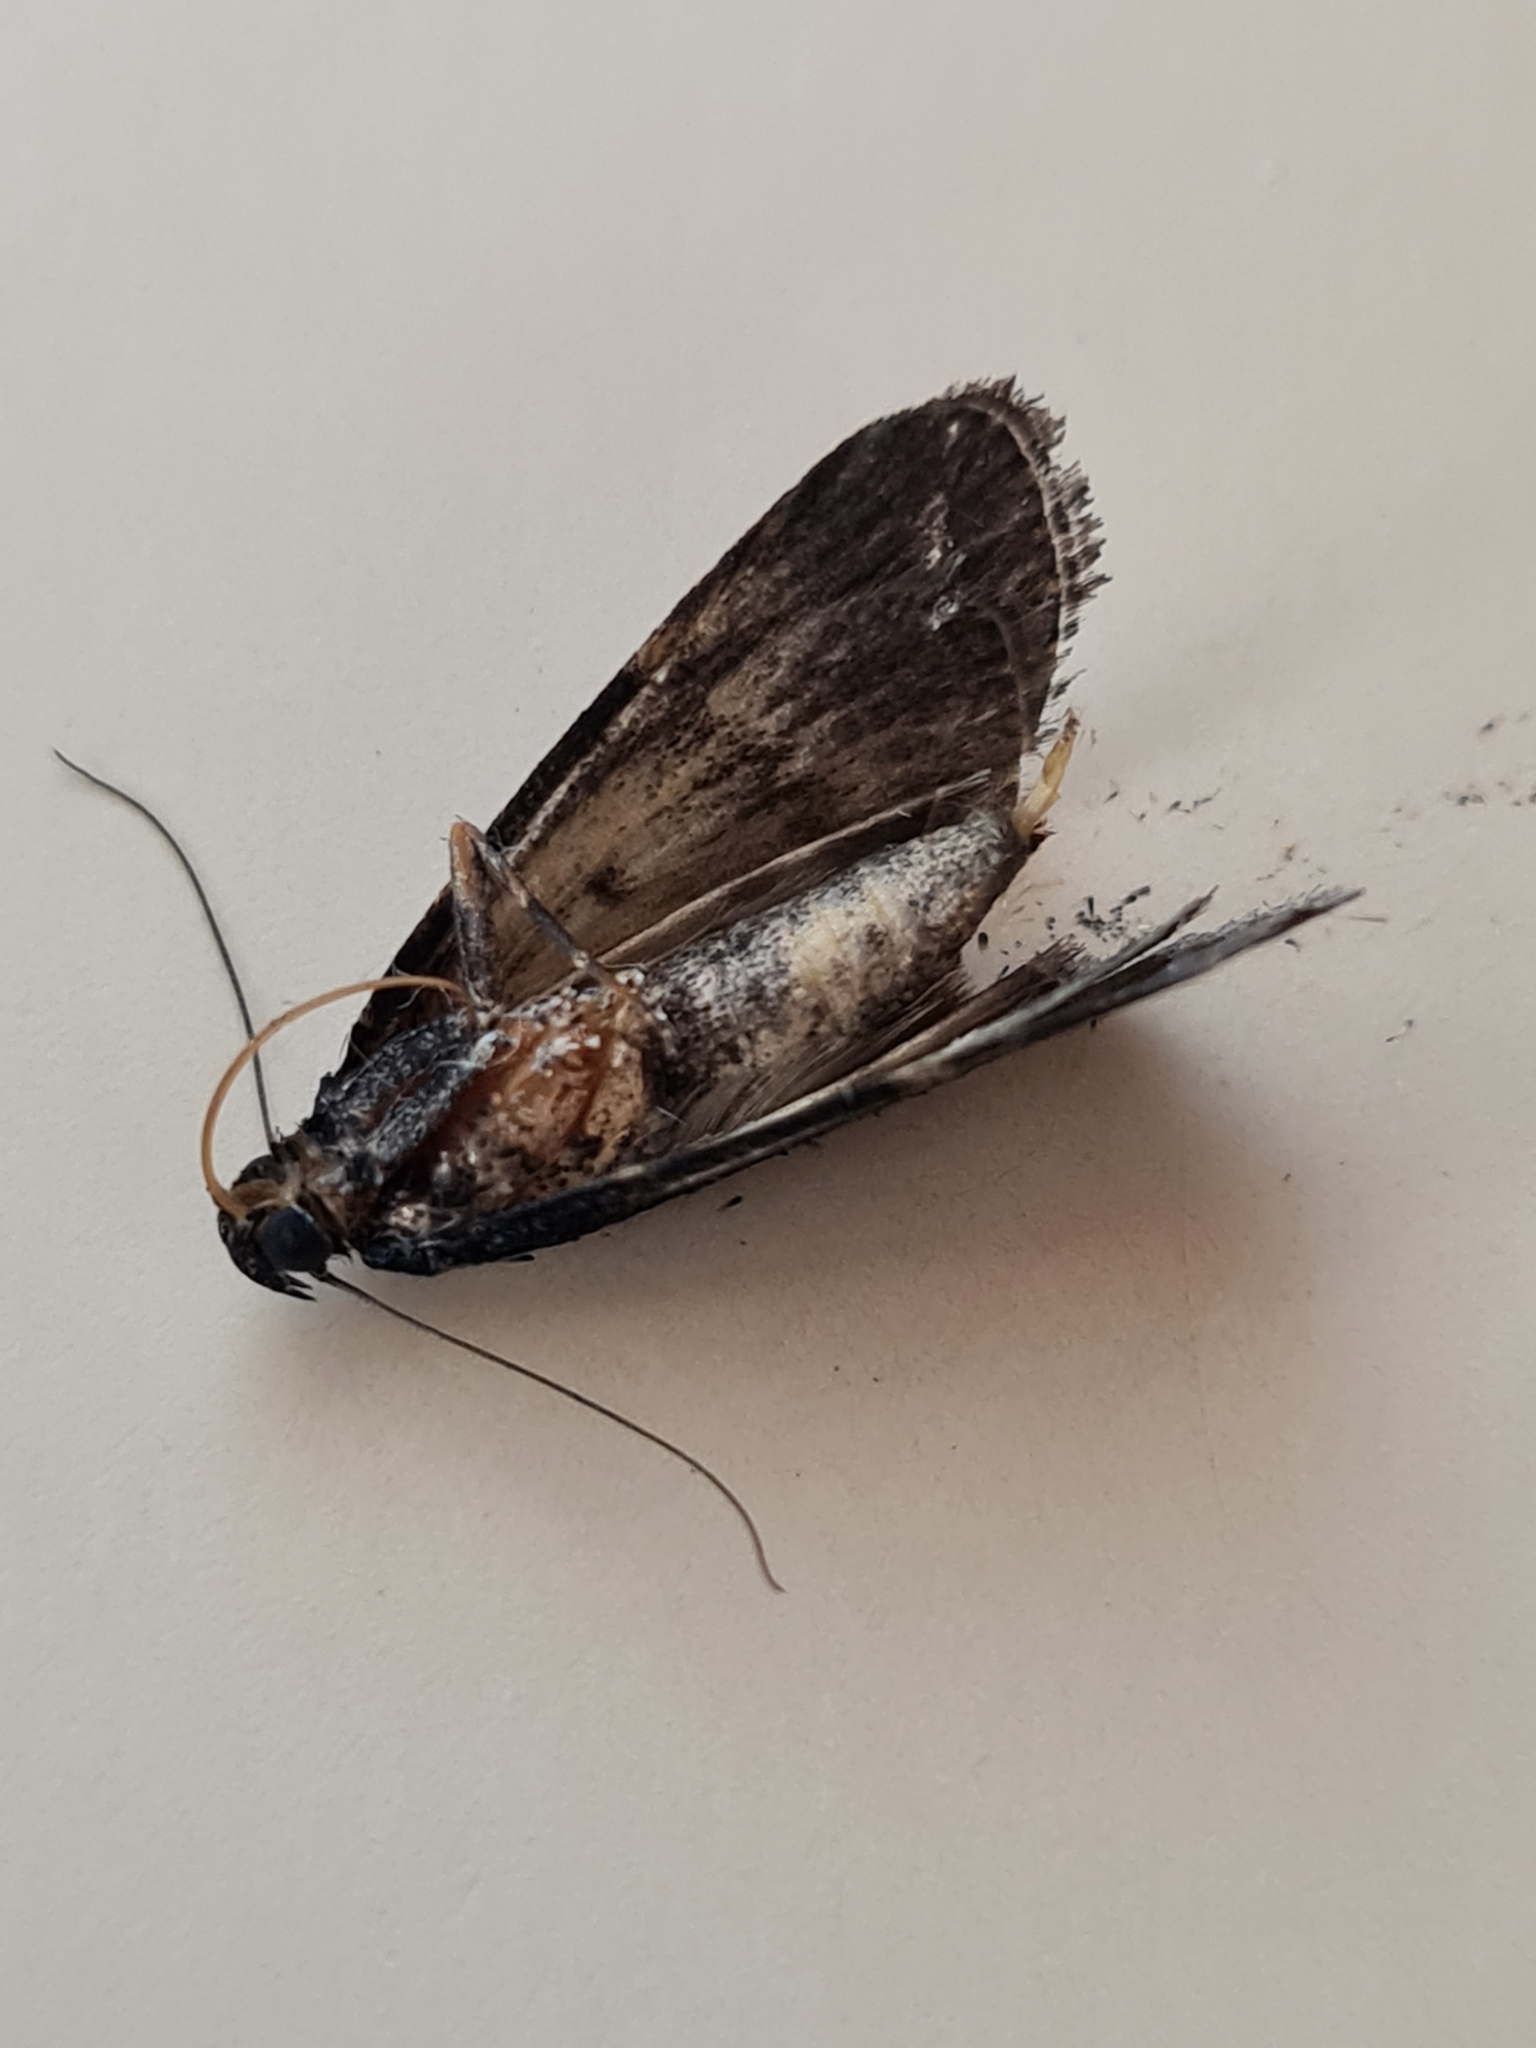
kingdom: Animalia
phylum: Arthropoda
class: Insecta
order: Lepidoptera
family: Pyralidae
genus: Stericta
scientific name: Stericta carbonalis
